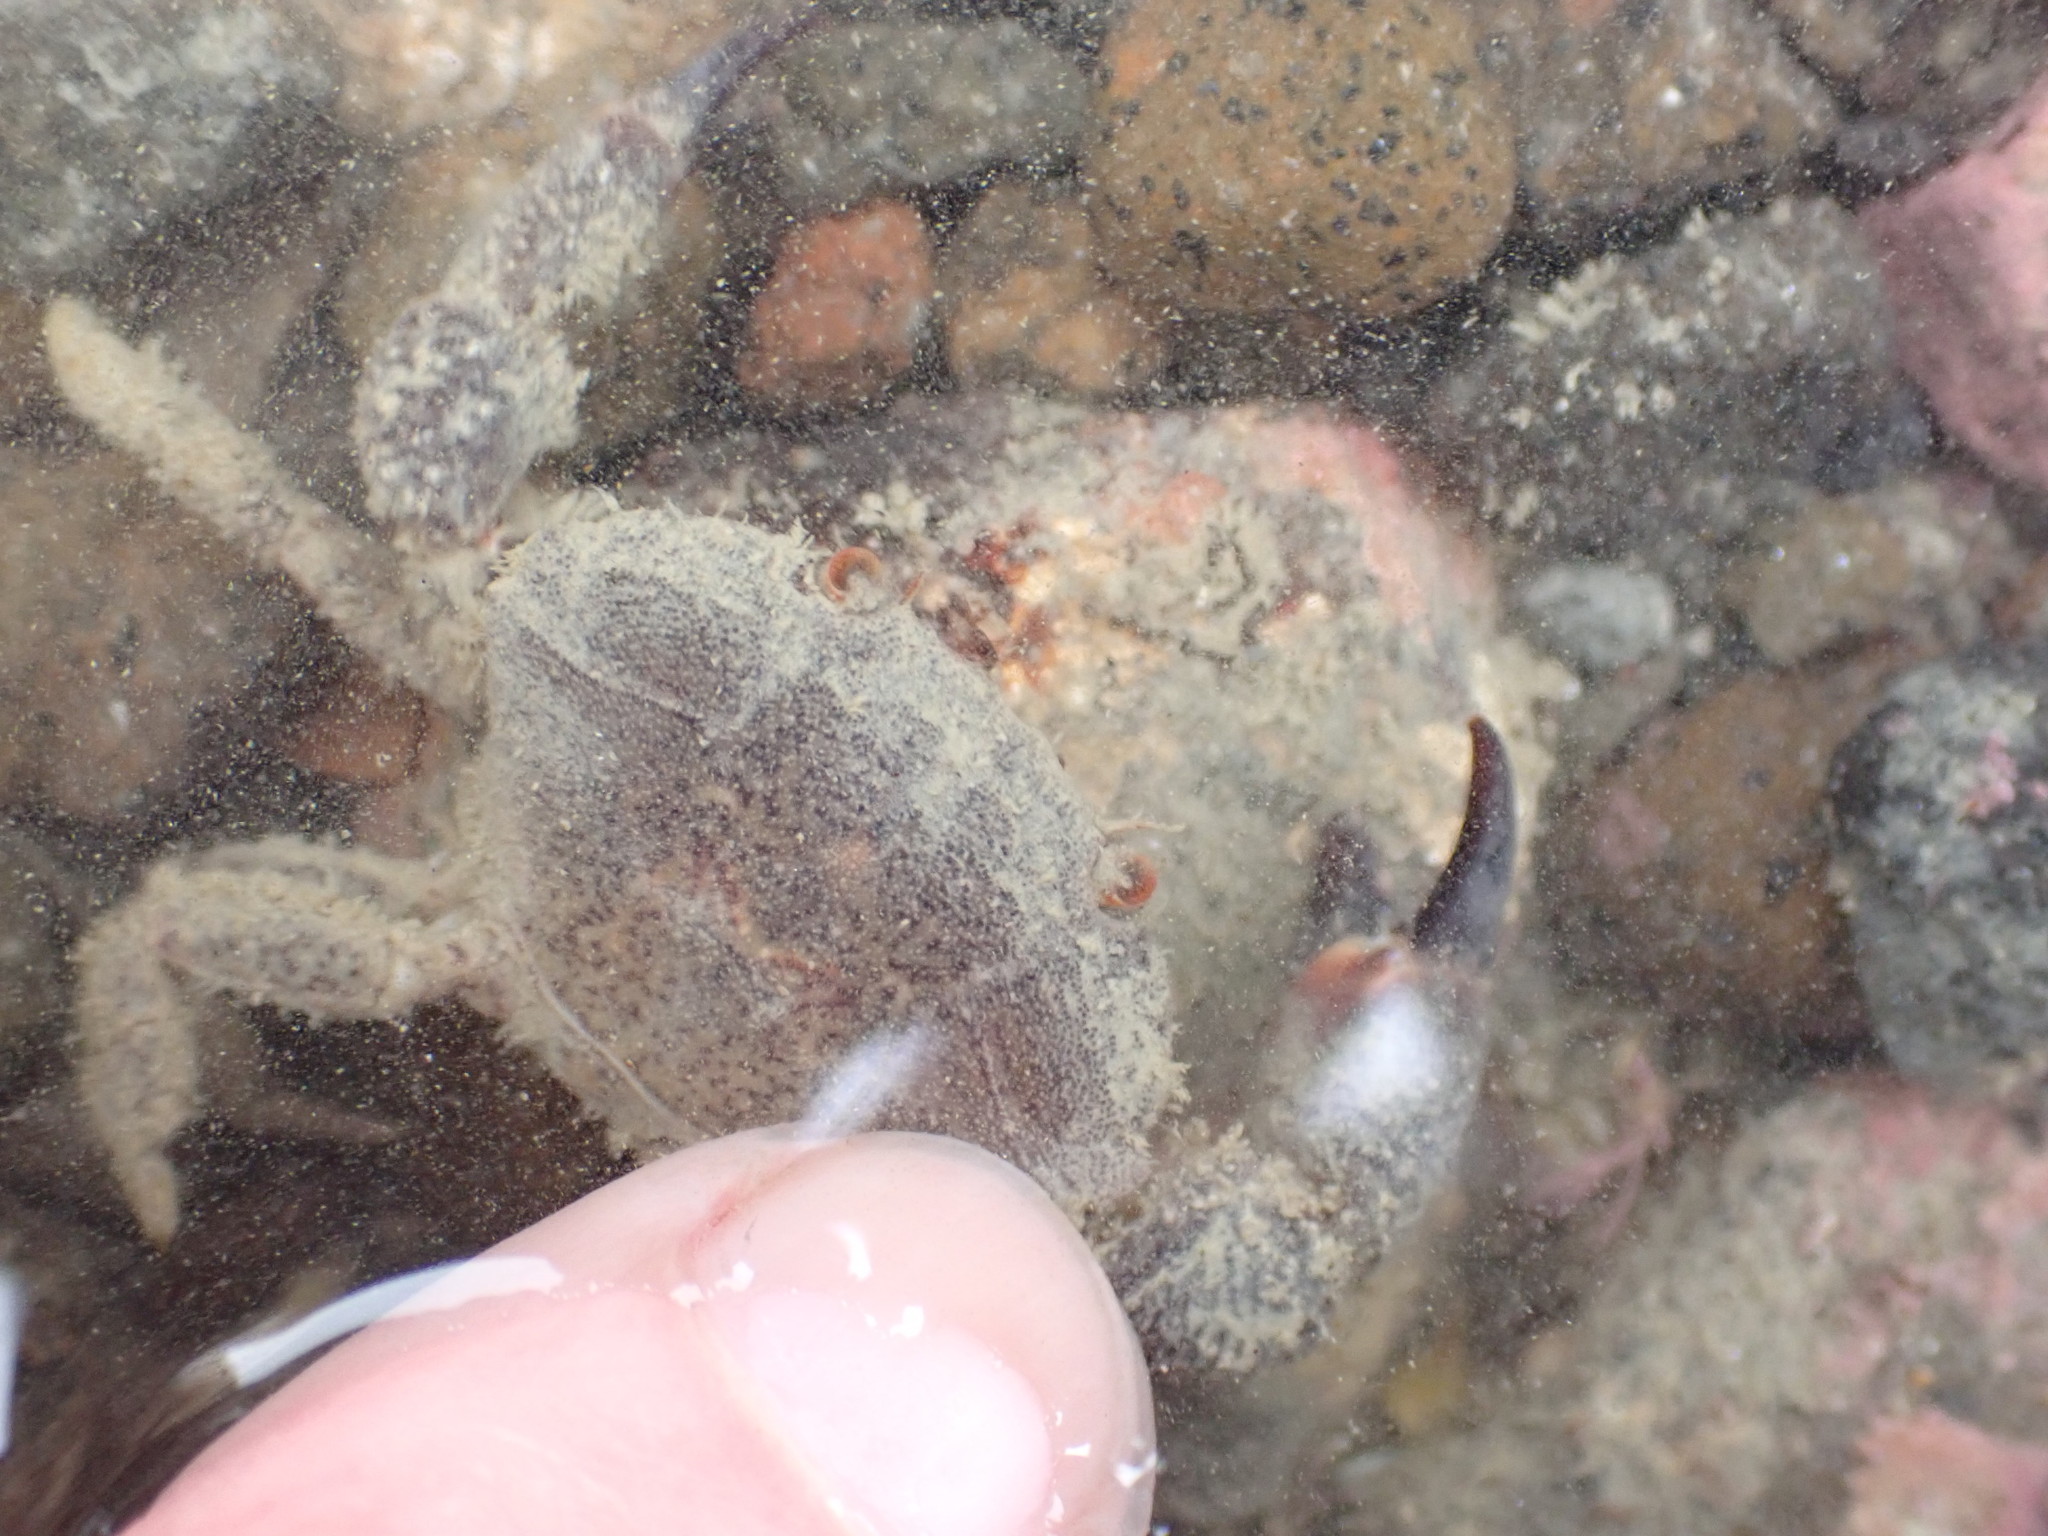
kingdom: Animalia
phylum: Arthropoda
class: Malacostraca
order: Decapoda
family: Oziidae
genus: Ozius
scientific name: Ozius deplanatus
